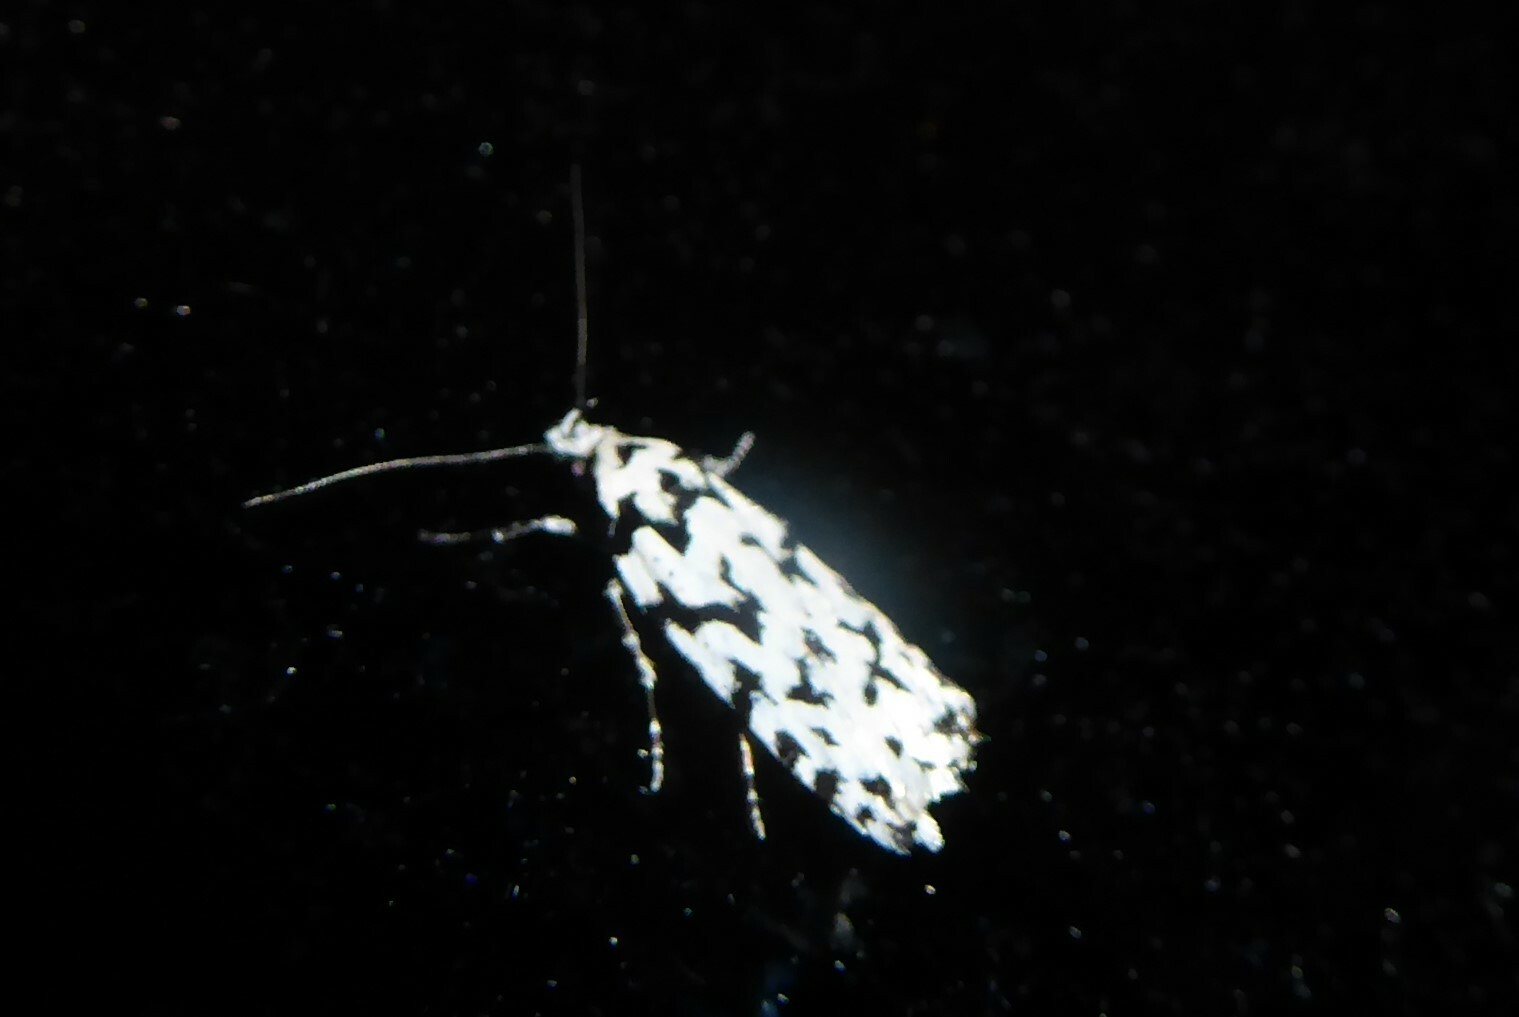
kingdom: Animalia
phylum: Arthropoda
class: Insecta
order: Lepidoptera
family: Oecophoridae
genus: Izatha
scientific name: Izatha katadiktya
